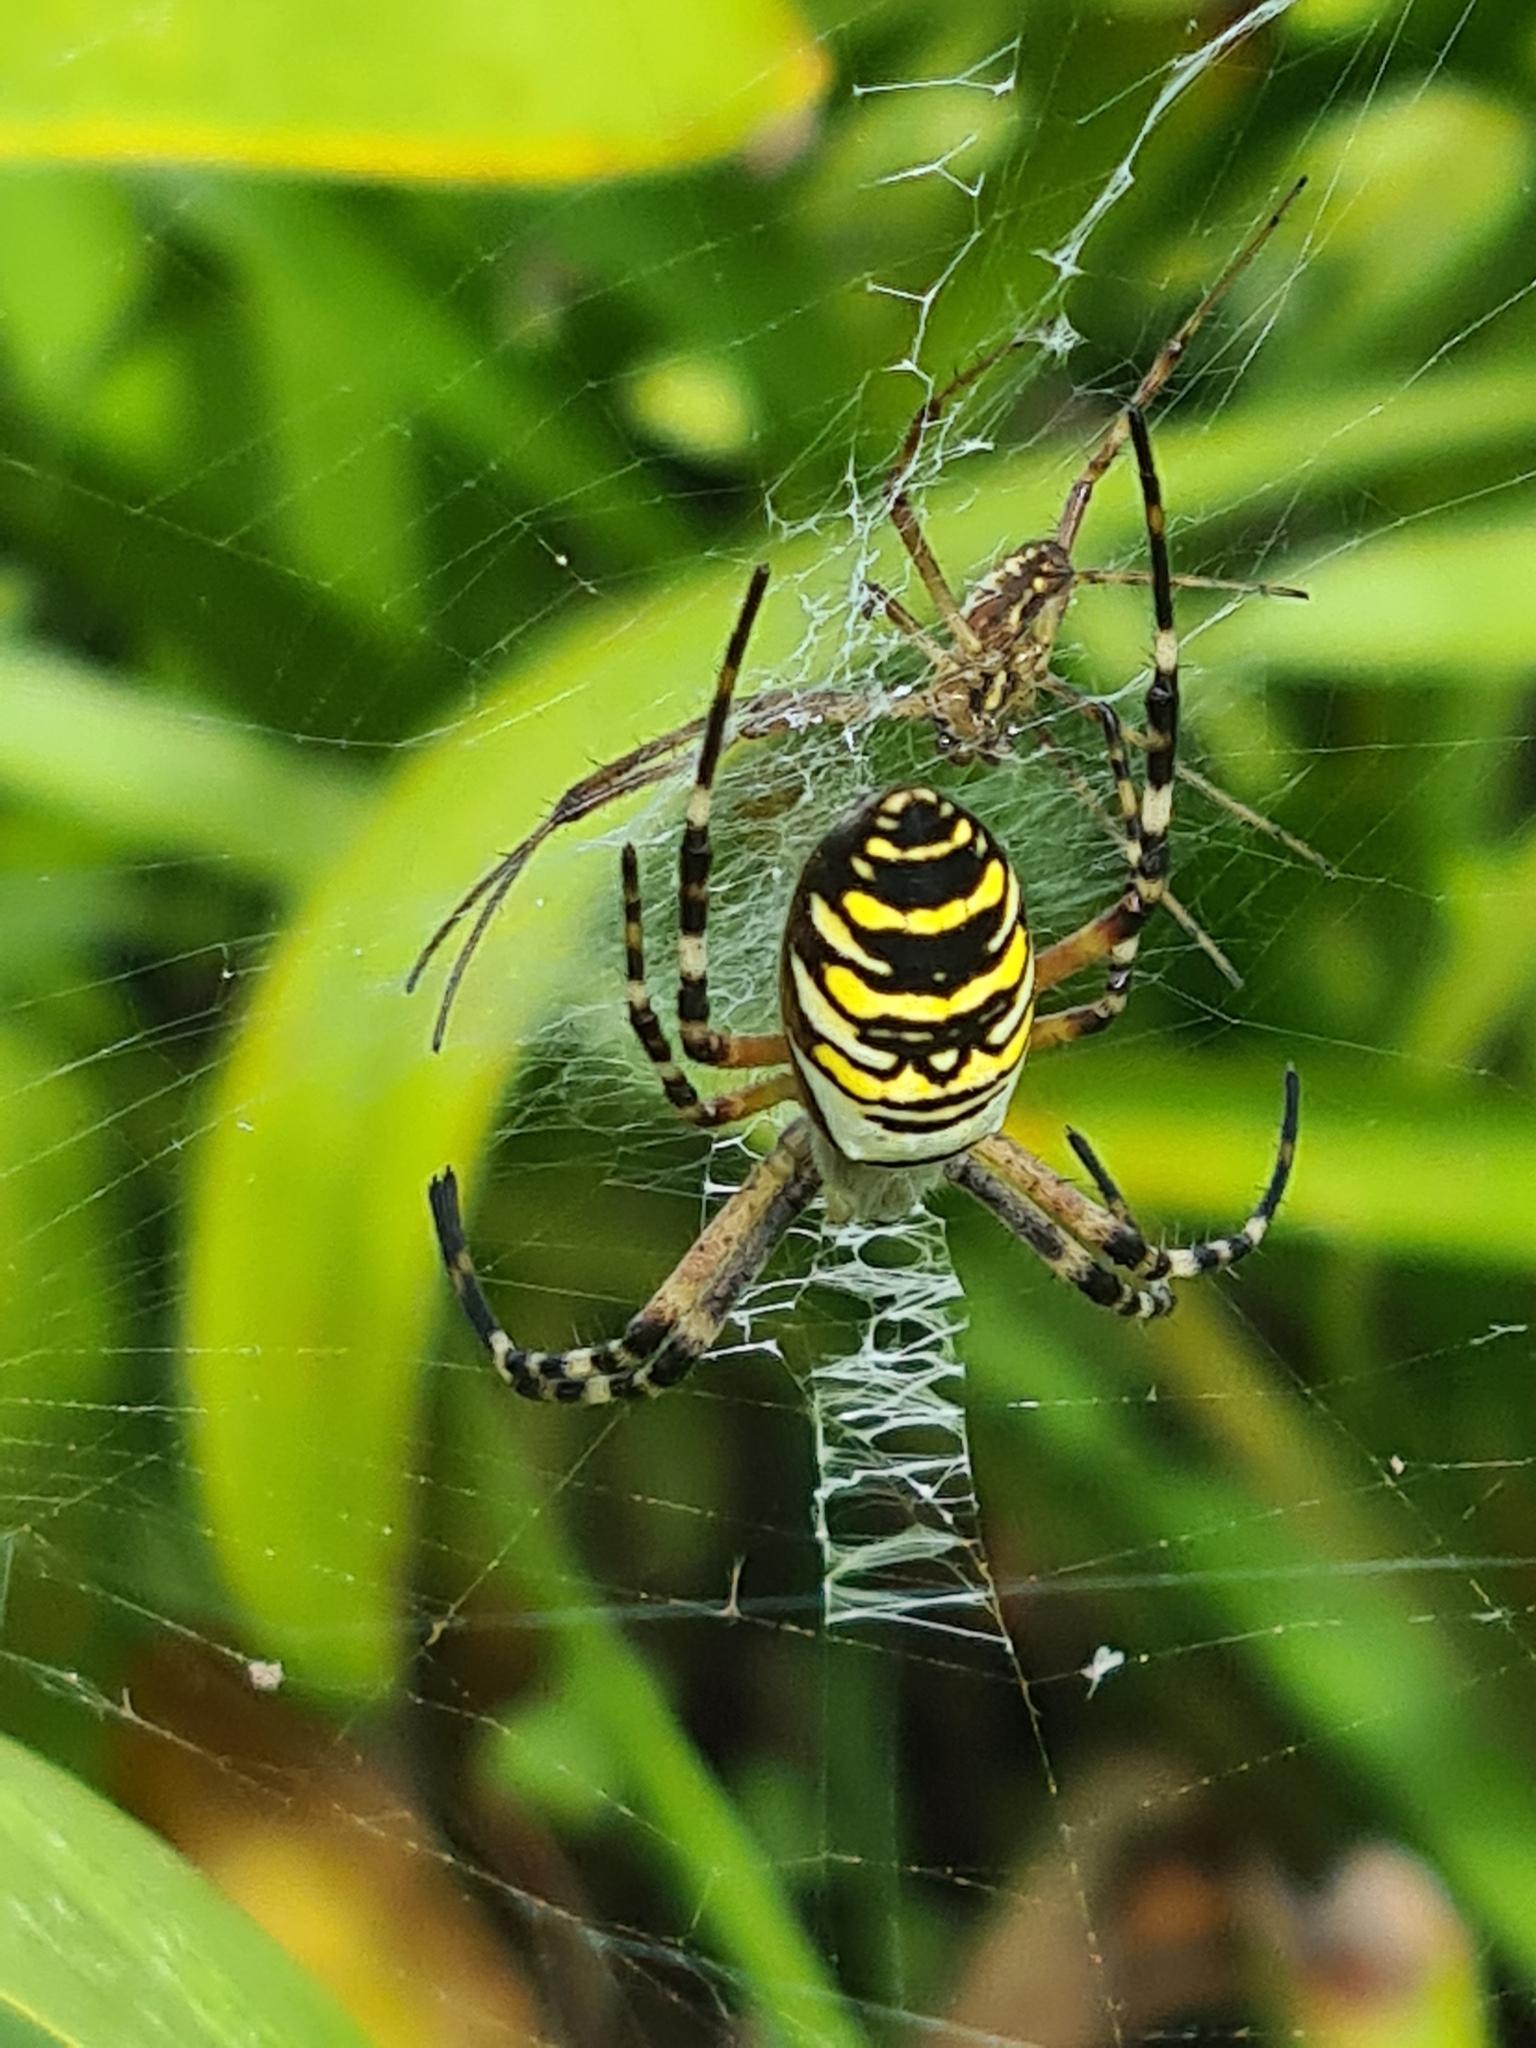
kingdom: Animalia
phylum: Arthropoda
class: Arachnida
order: Araneae
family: Araneidae
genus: Argiope
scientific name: Argiope bruennichi
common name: Wasp spider
